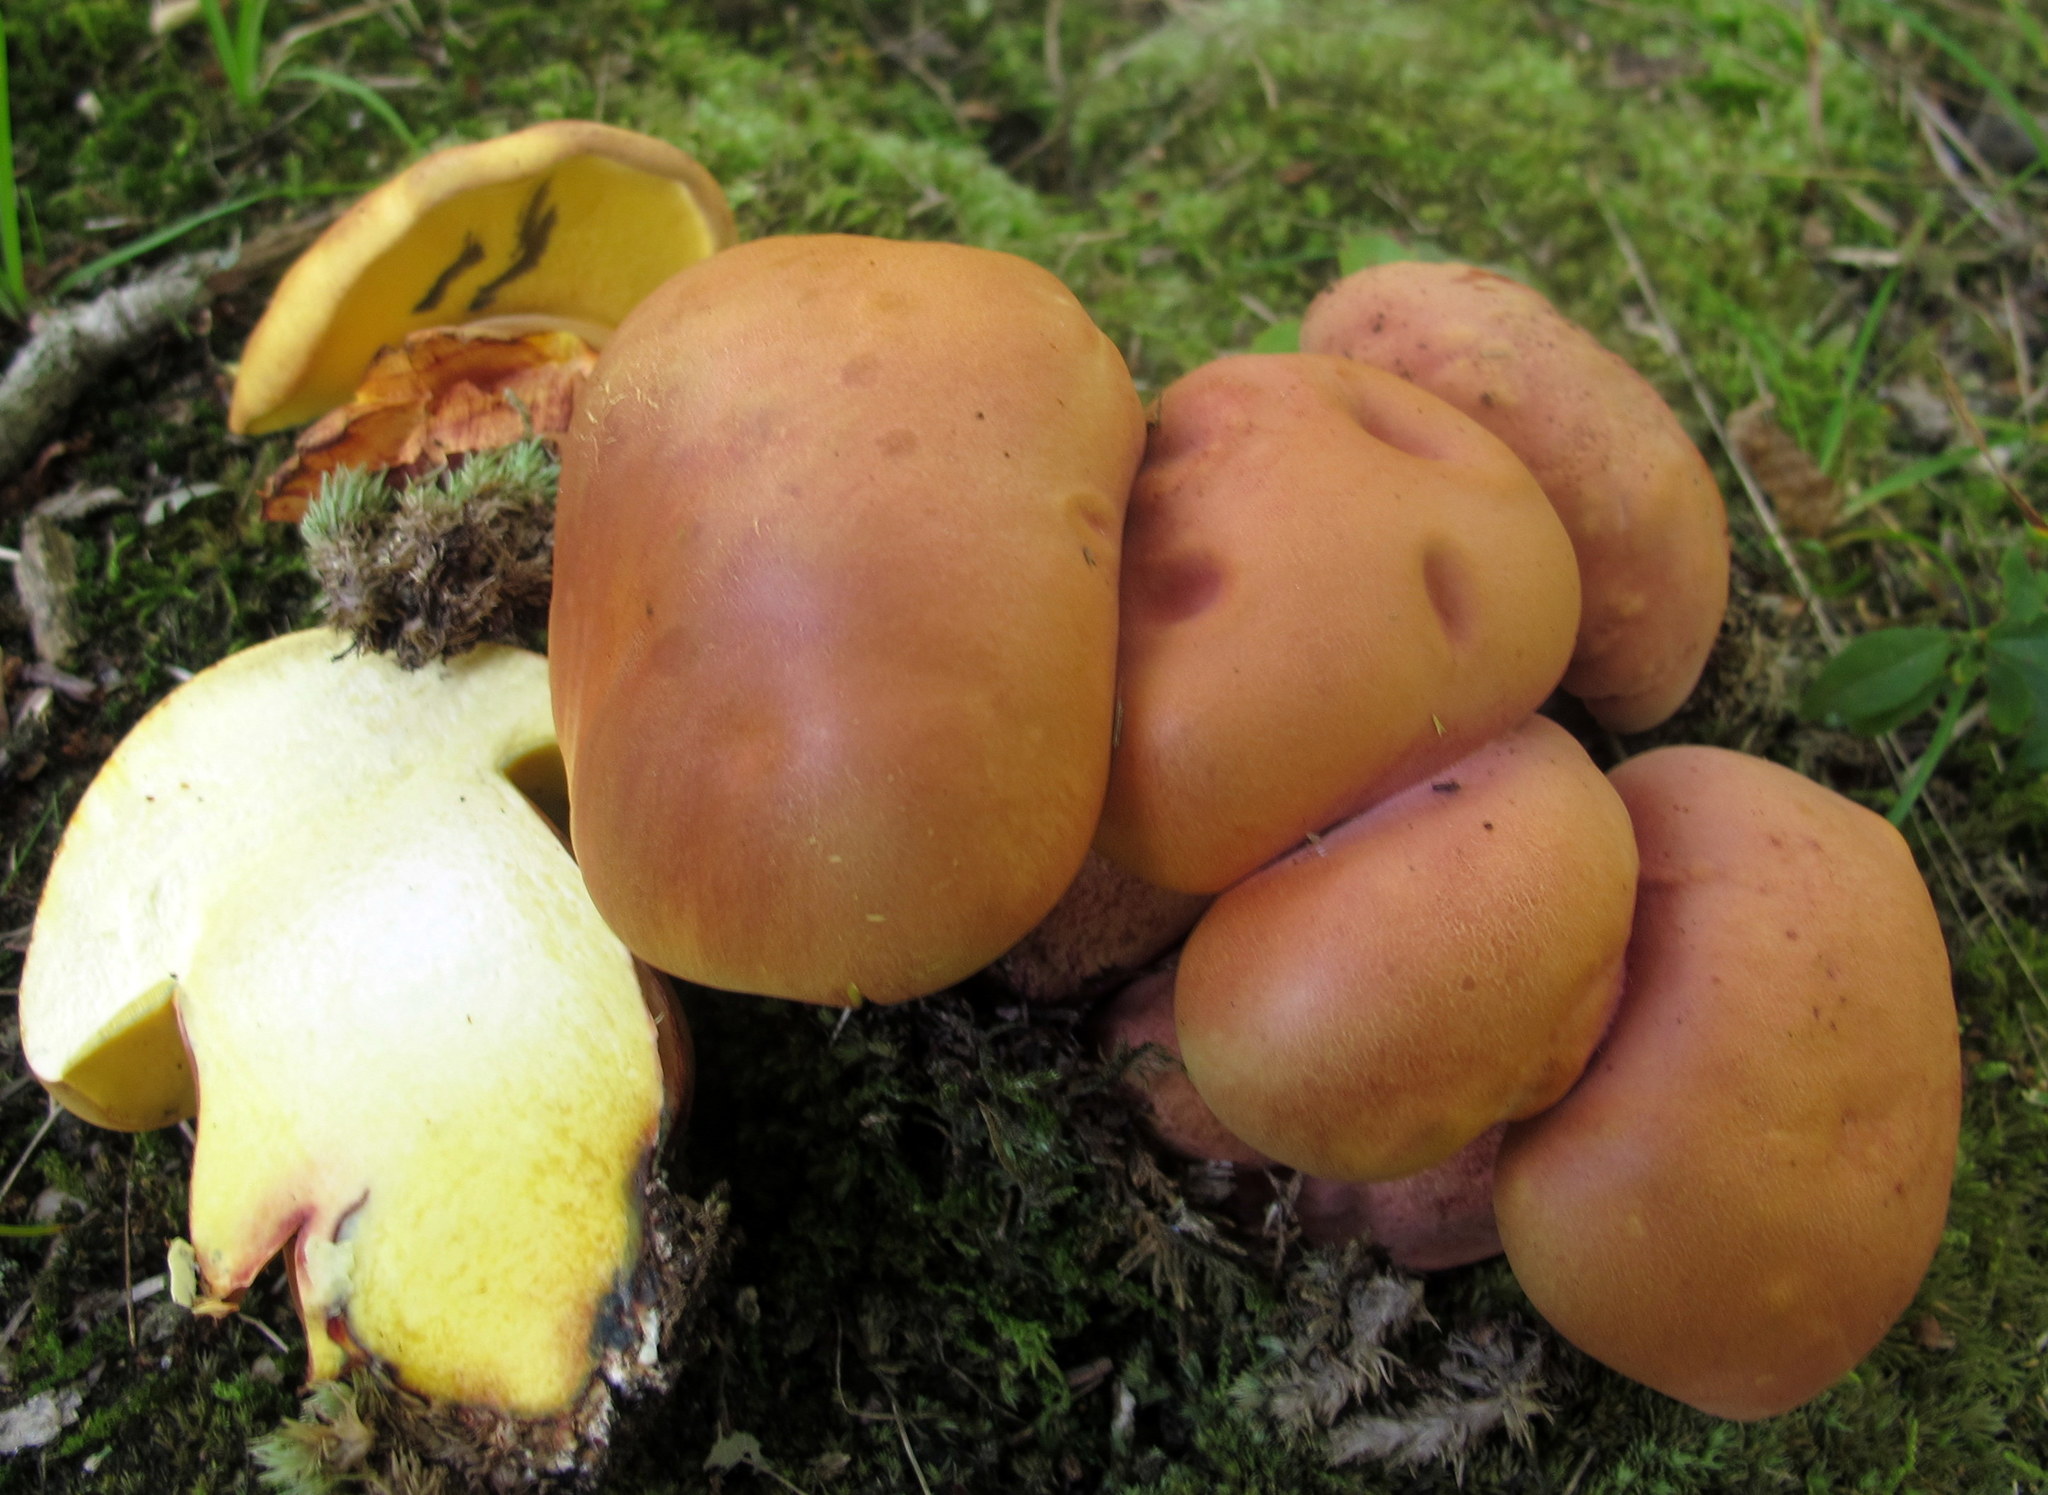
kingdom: Fungi
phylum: Basidiomycota
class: Agaricomycetes
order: Boletales
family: Boletaceae
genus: Baorangia
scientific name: Baorangia bicolor
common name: Two-colored bolete
